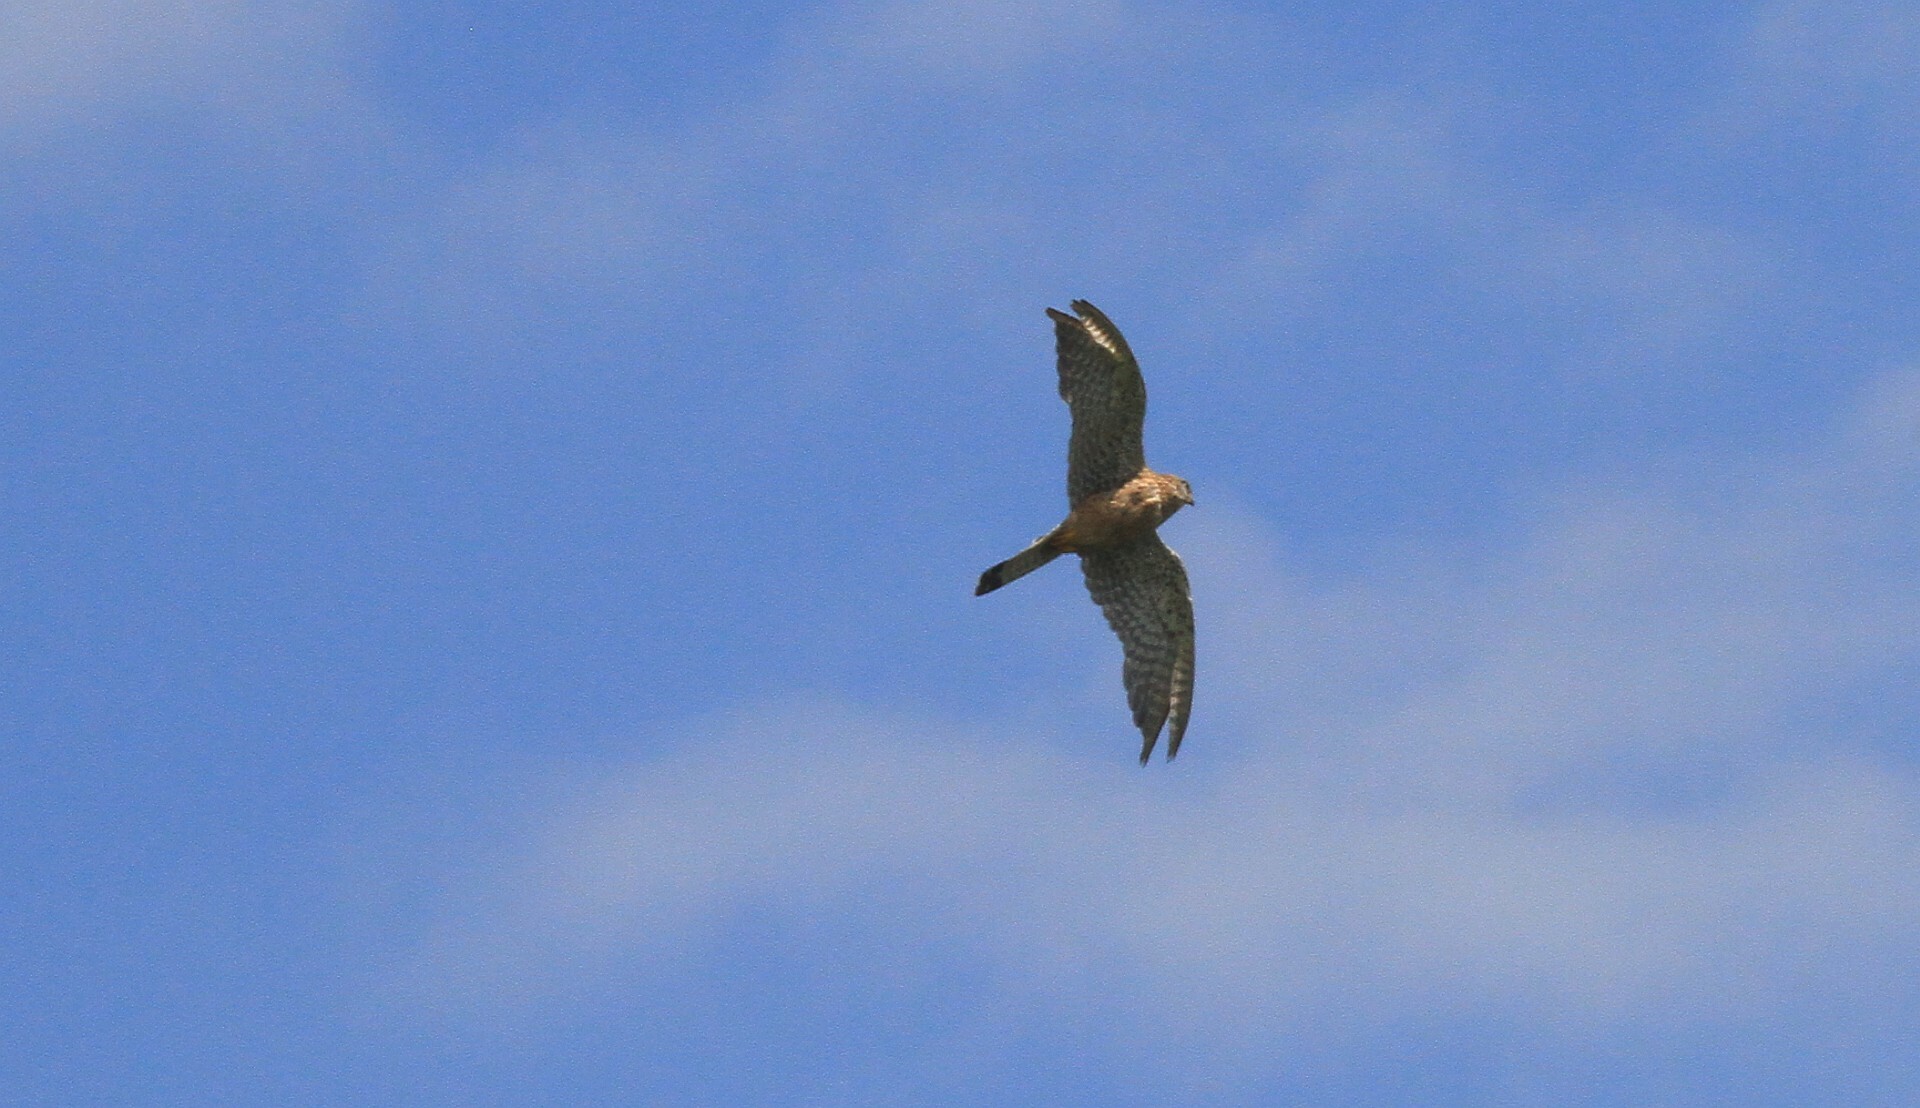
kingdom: Animalia
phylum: Chordata
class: Aves
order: Falconiformes
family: Falconidae
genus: Falco
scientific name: Falco tinnunculus
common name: Common kestrel
